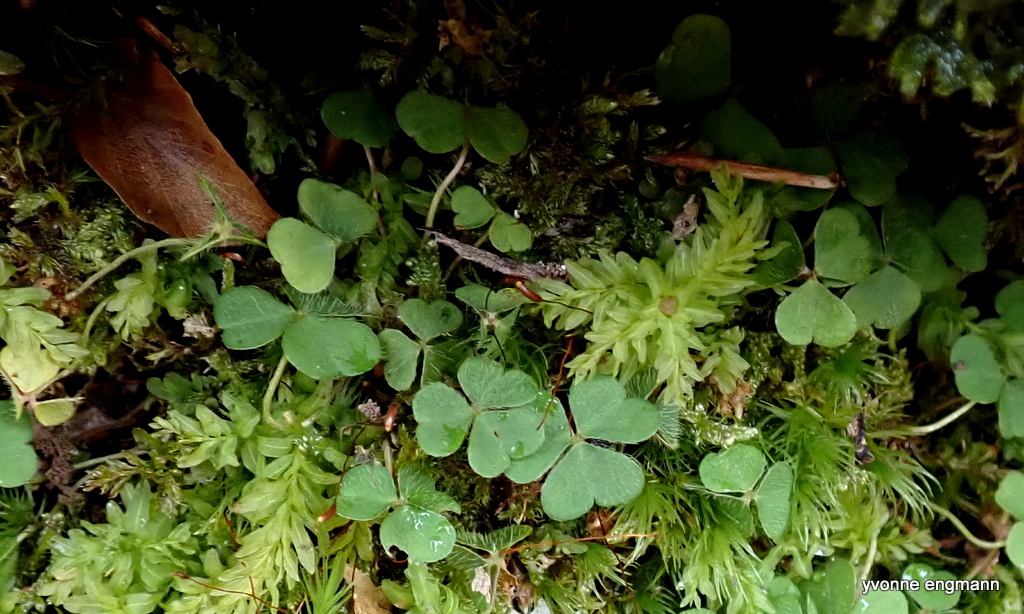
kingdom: Plantae
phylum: Tracheophyta
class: Magnoliopsida
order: Oxalidales
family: Oxalidaceae
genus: Oxalis
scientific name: Oxalis acetosella
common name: Wood-sorrel
